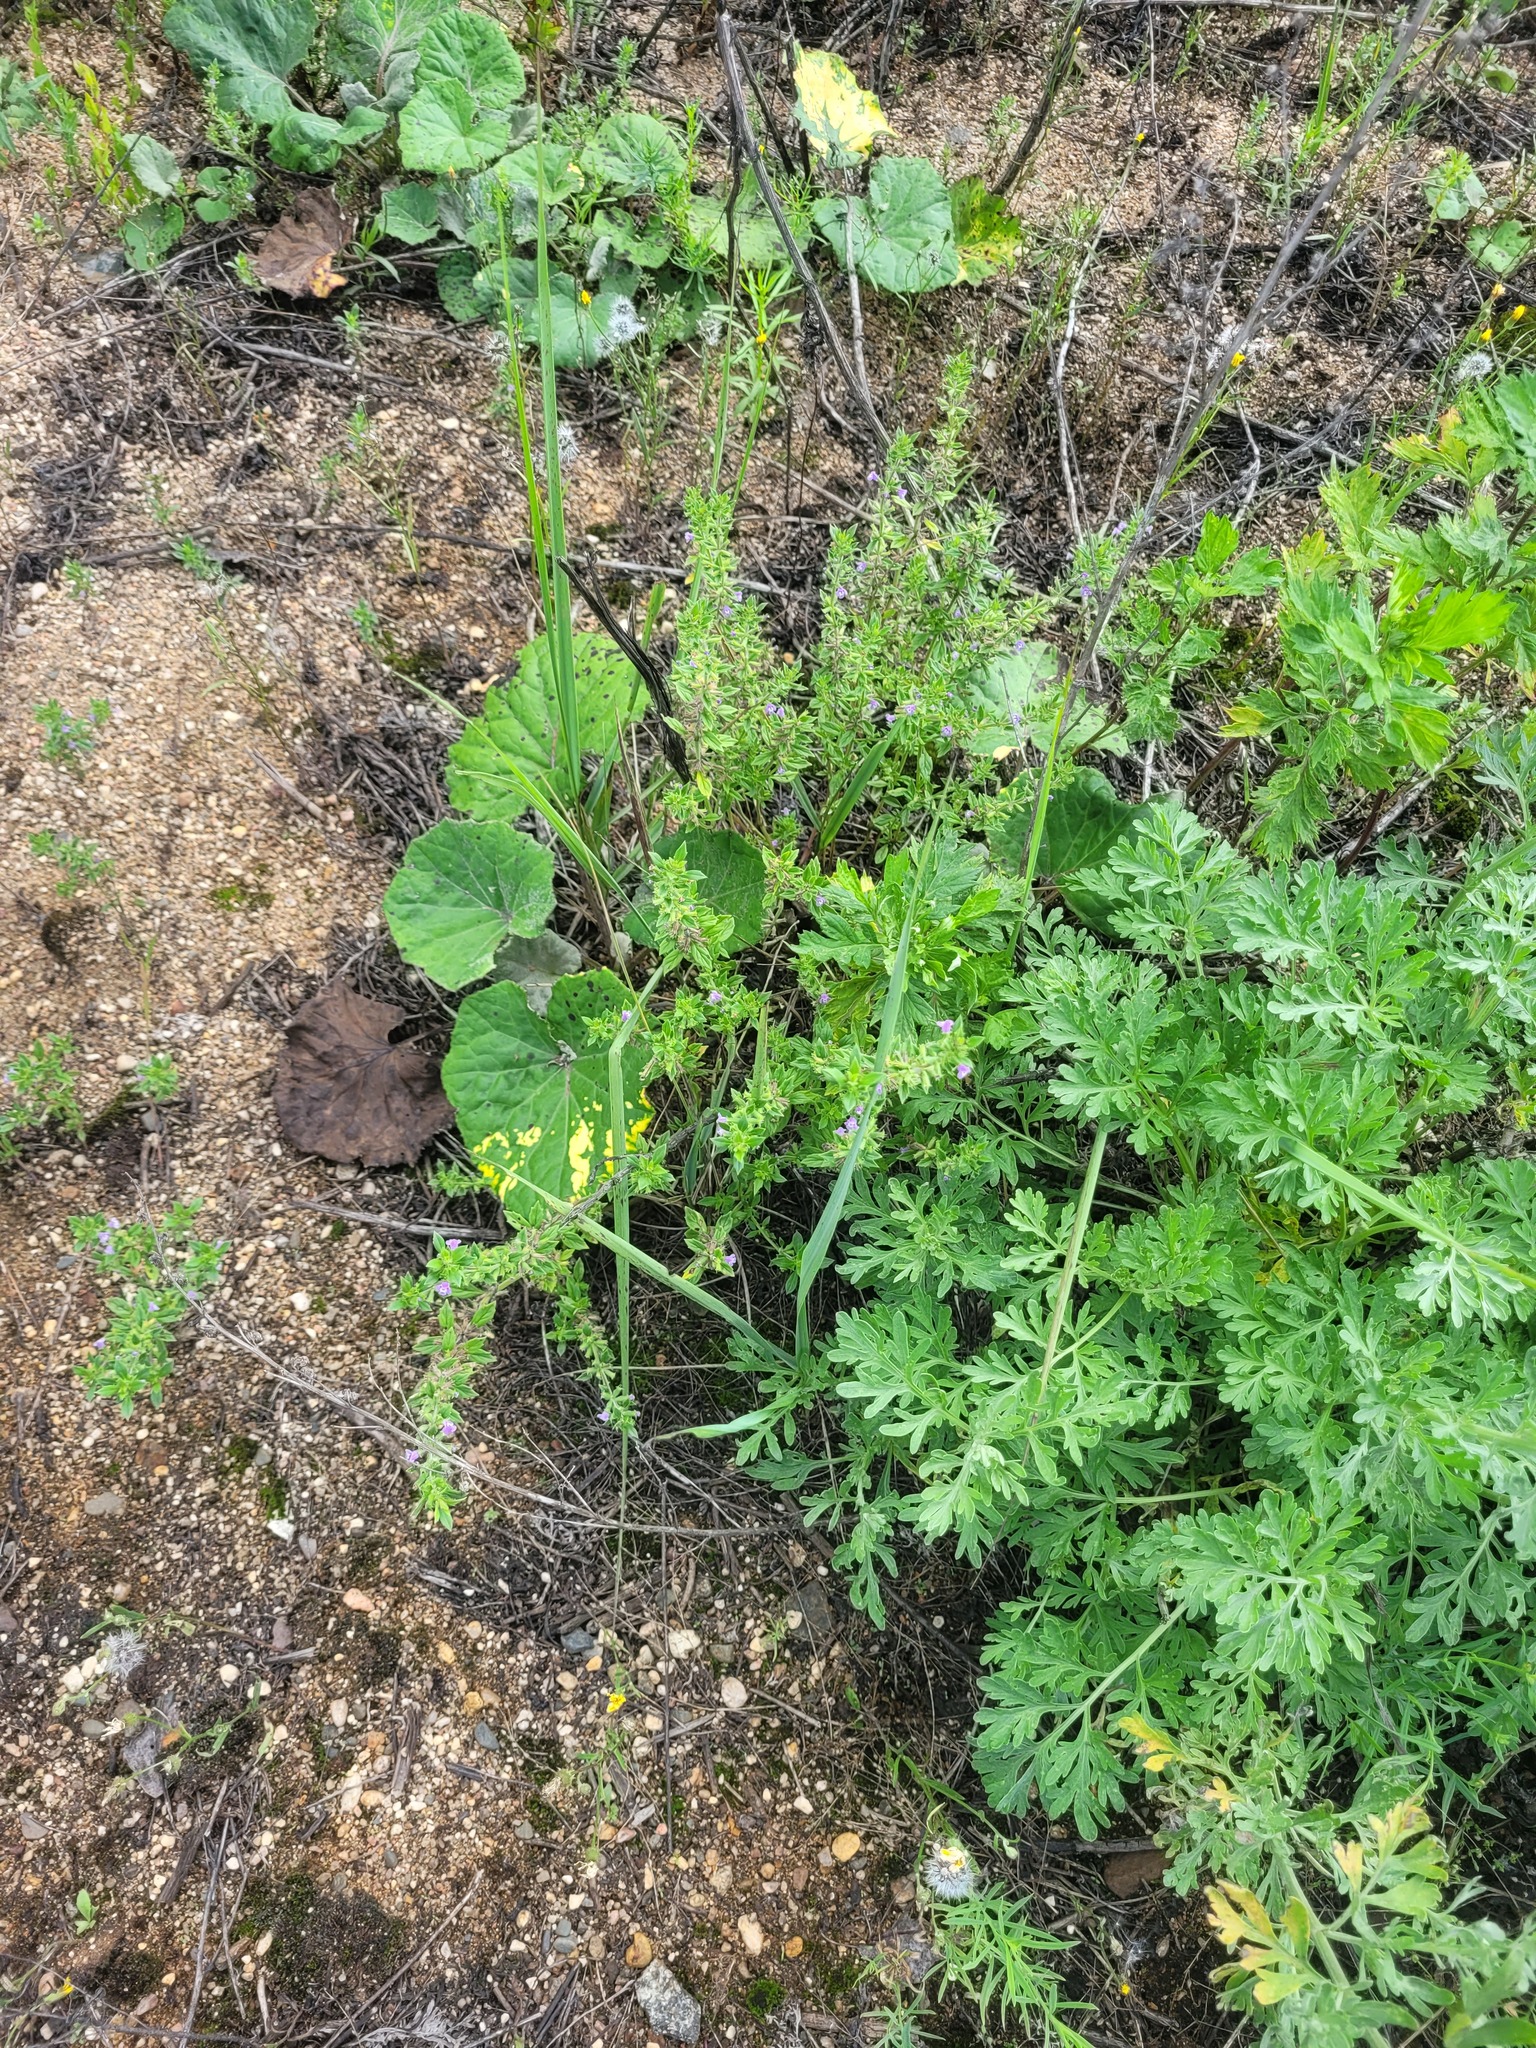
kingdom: Plantae
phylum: Tracheophyta
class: Magnoliopsida
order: Lamiales
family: Lamiaceae
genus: Clinopodium
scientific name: Clinopodium acinos
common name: Basil thyme
